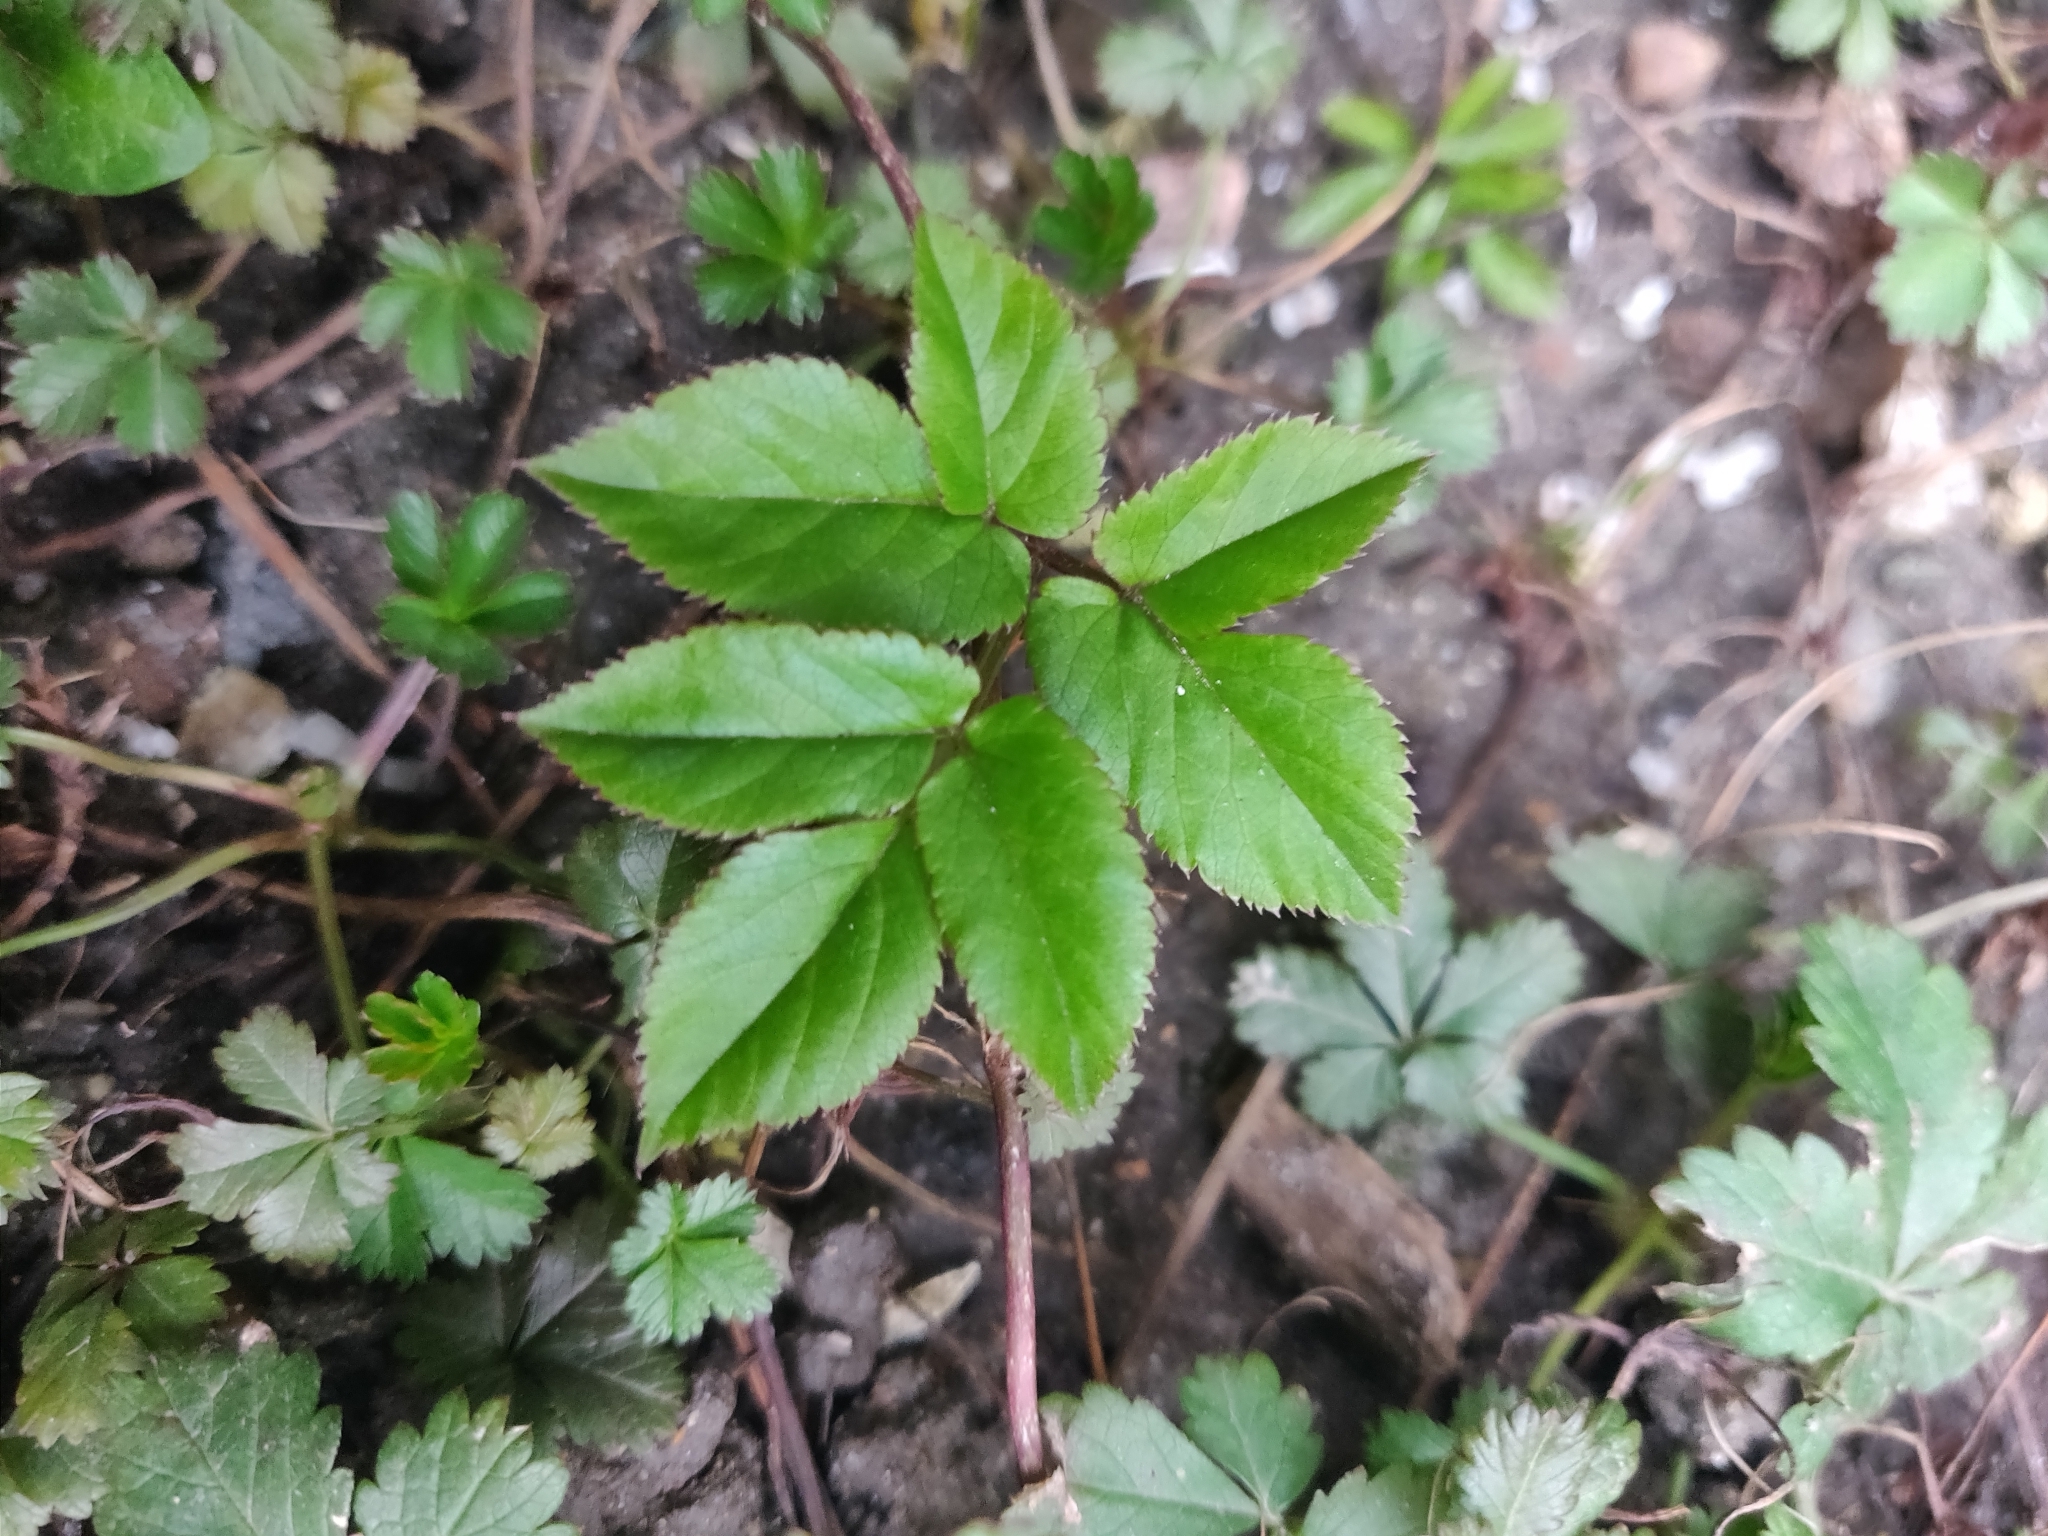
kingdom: Plantae
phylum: Tracheophyta
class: Magnoliopsida
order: Apiales
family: Apiaceae
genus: Aegopodium
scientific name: Aegopodium podagraria
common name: Ground-elder
